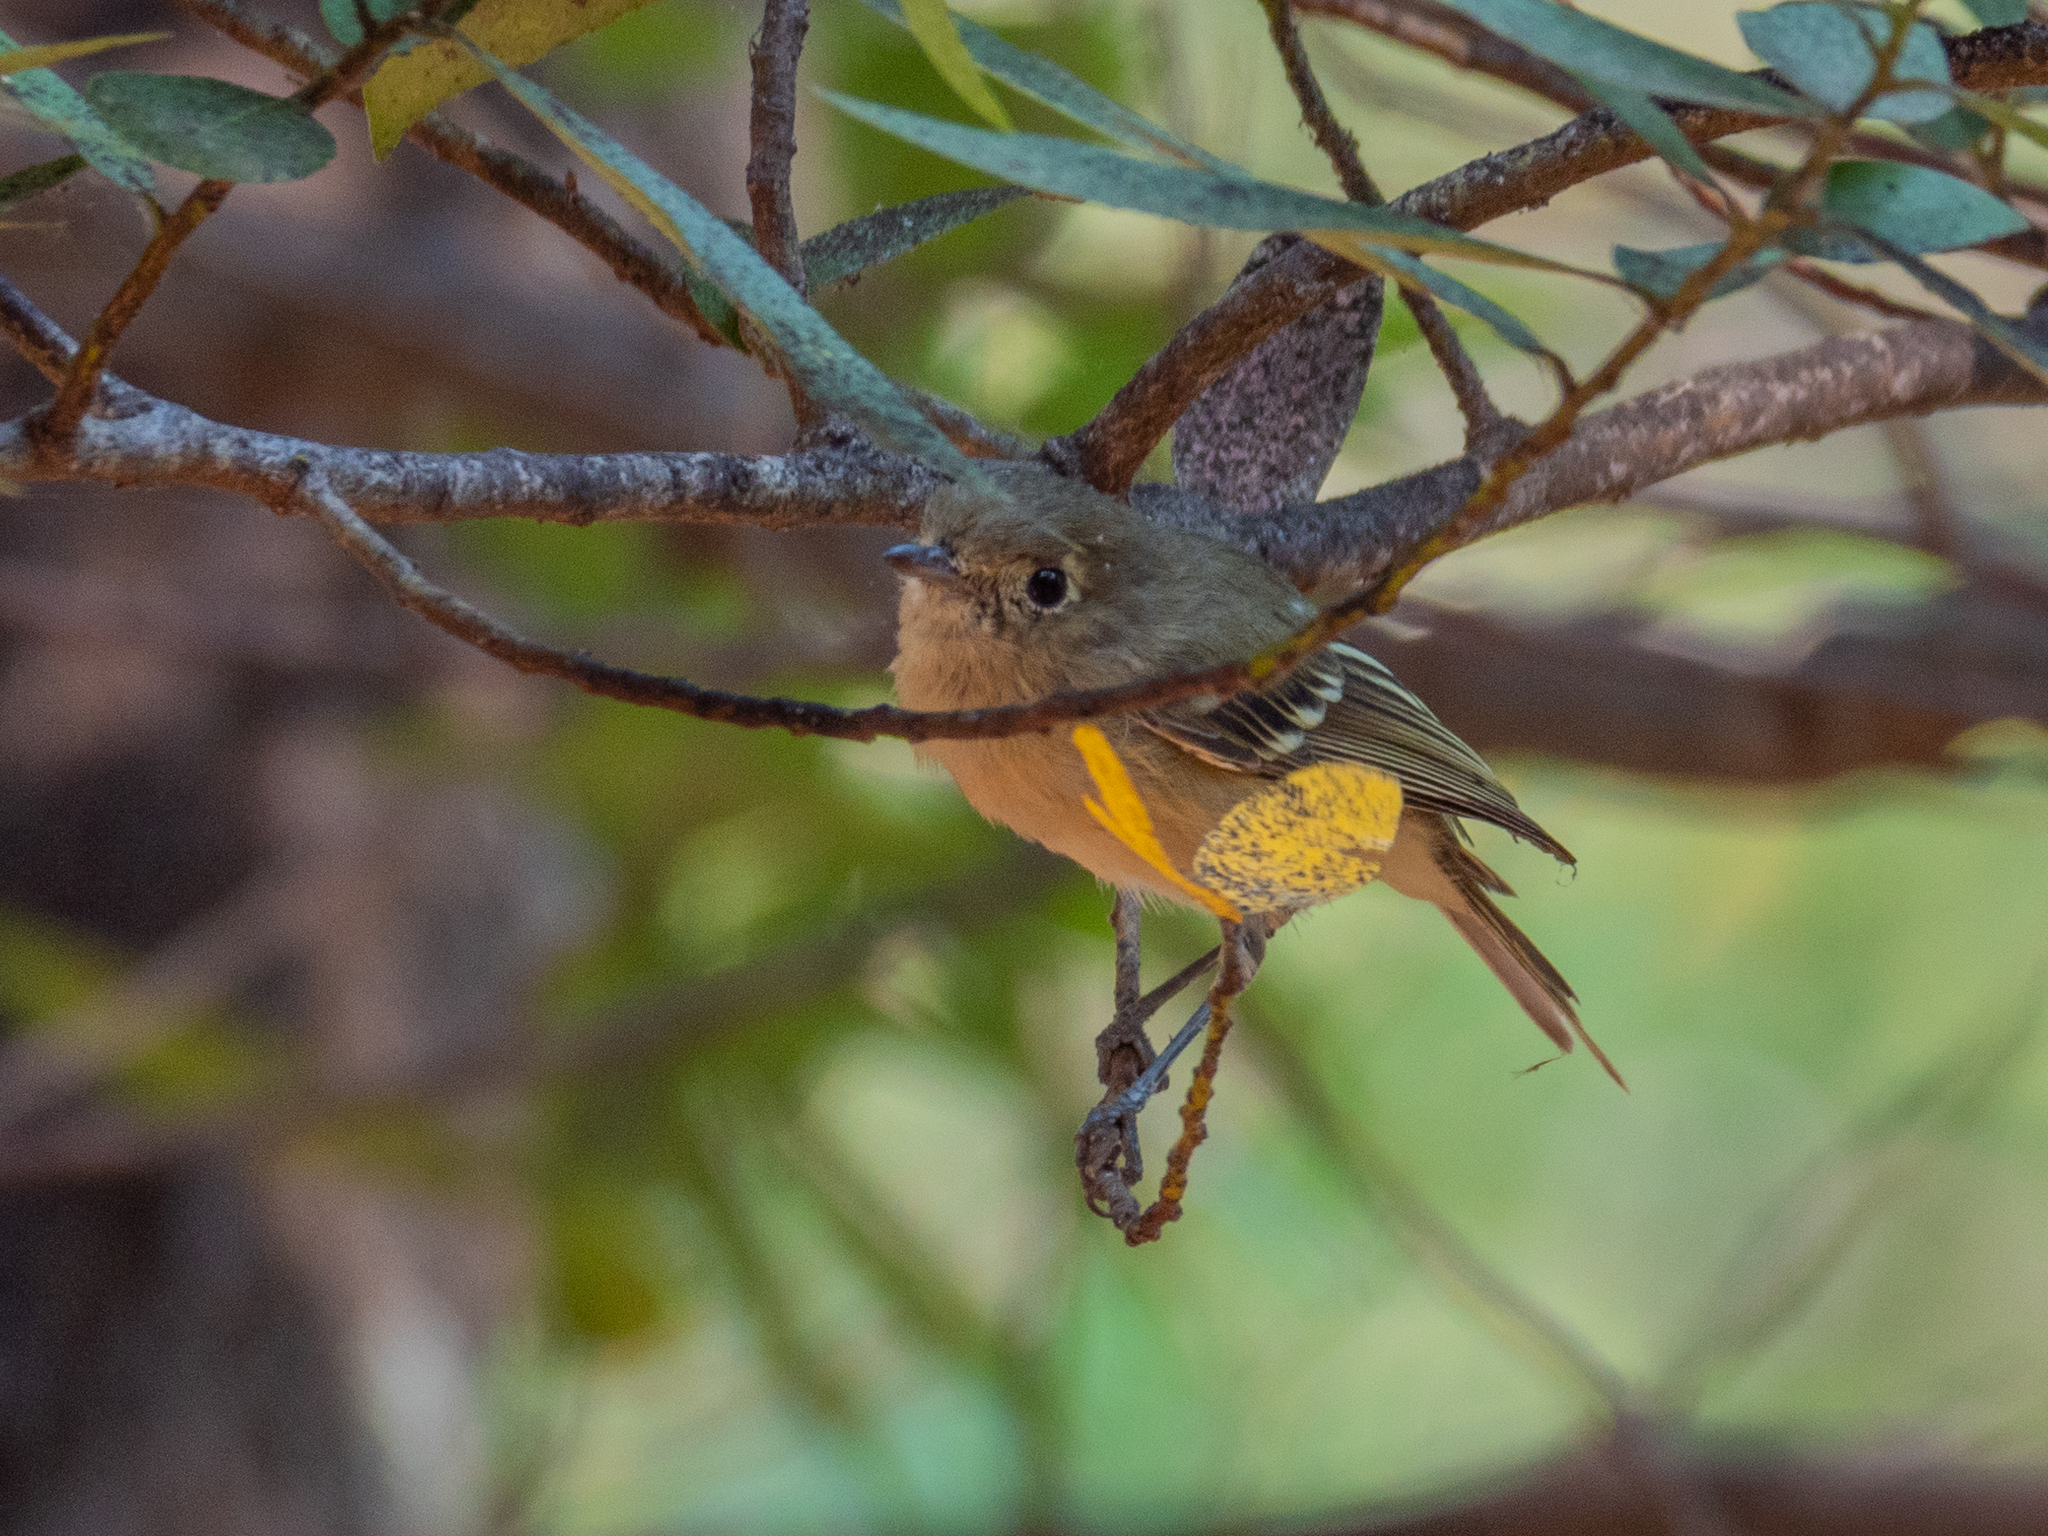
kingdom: Animalia
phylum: Chordata
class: Aves
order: Passeriformes
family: Vireonidae
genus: Vireo
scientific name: Vireo huttoni
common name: Hutton's vireo
